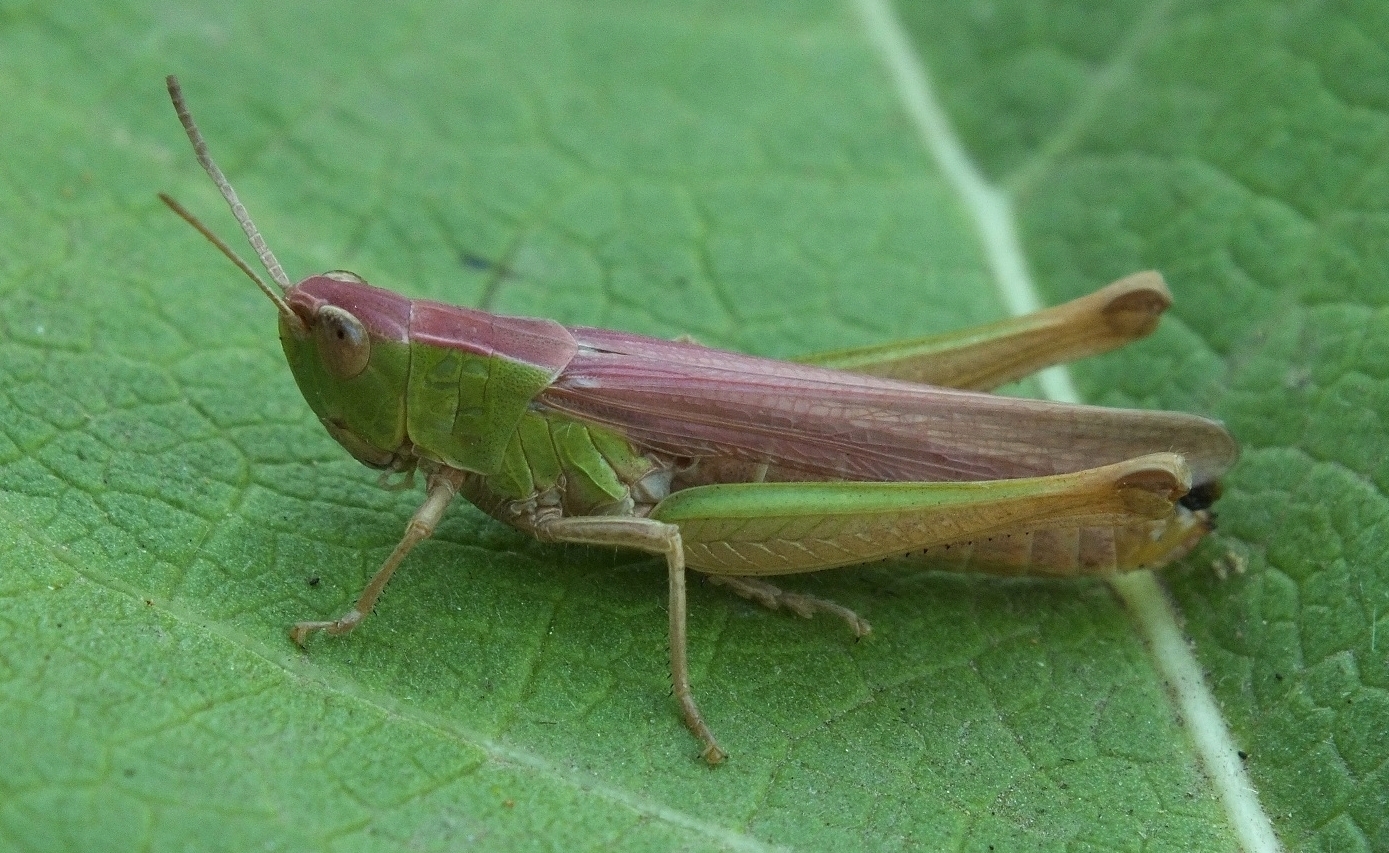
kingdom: Animalia
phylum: Arthropoda
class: Insecta
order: Orthoptera
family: Acrididae
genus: Chorthippus
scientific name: Chorthippus dichrous
